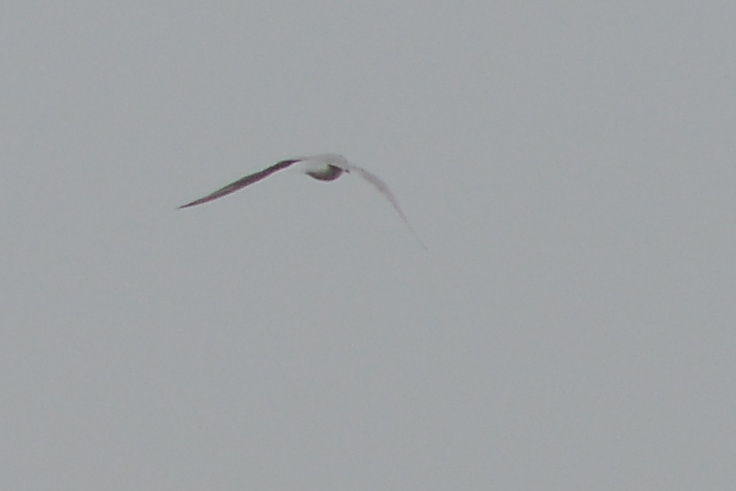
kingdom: Animalia
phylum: Chordata
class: Aves
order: Charadriiformes
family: Laridae
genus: Sterna
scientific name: Sterna striata
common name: White-fronted tern
